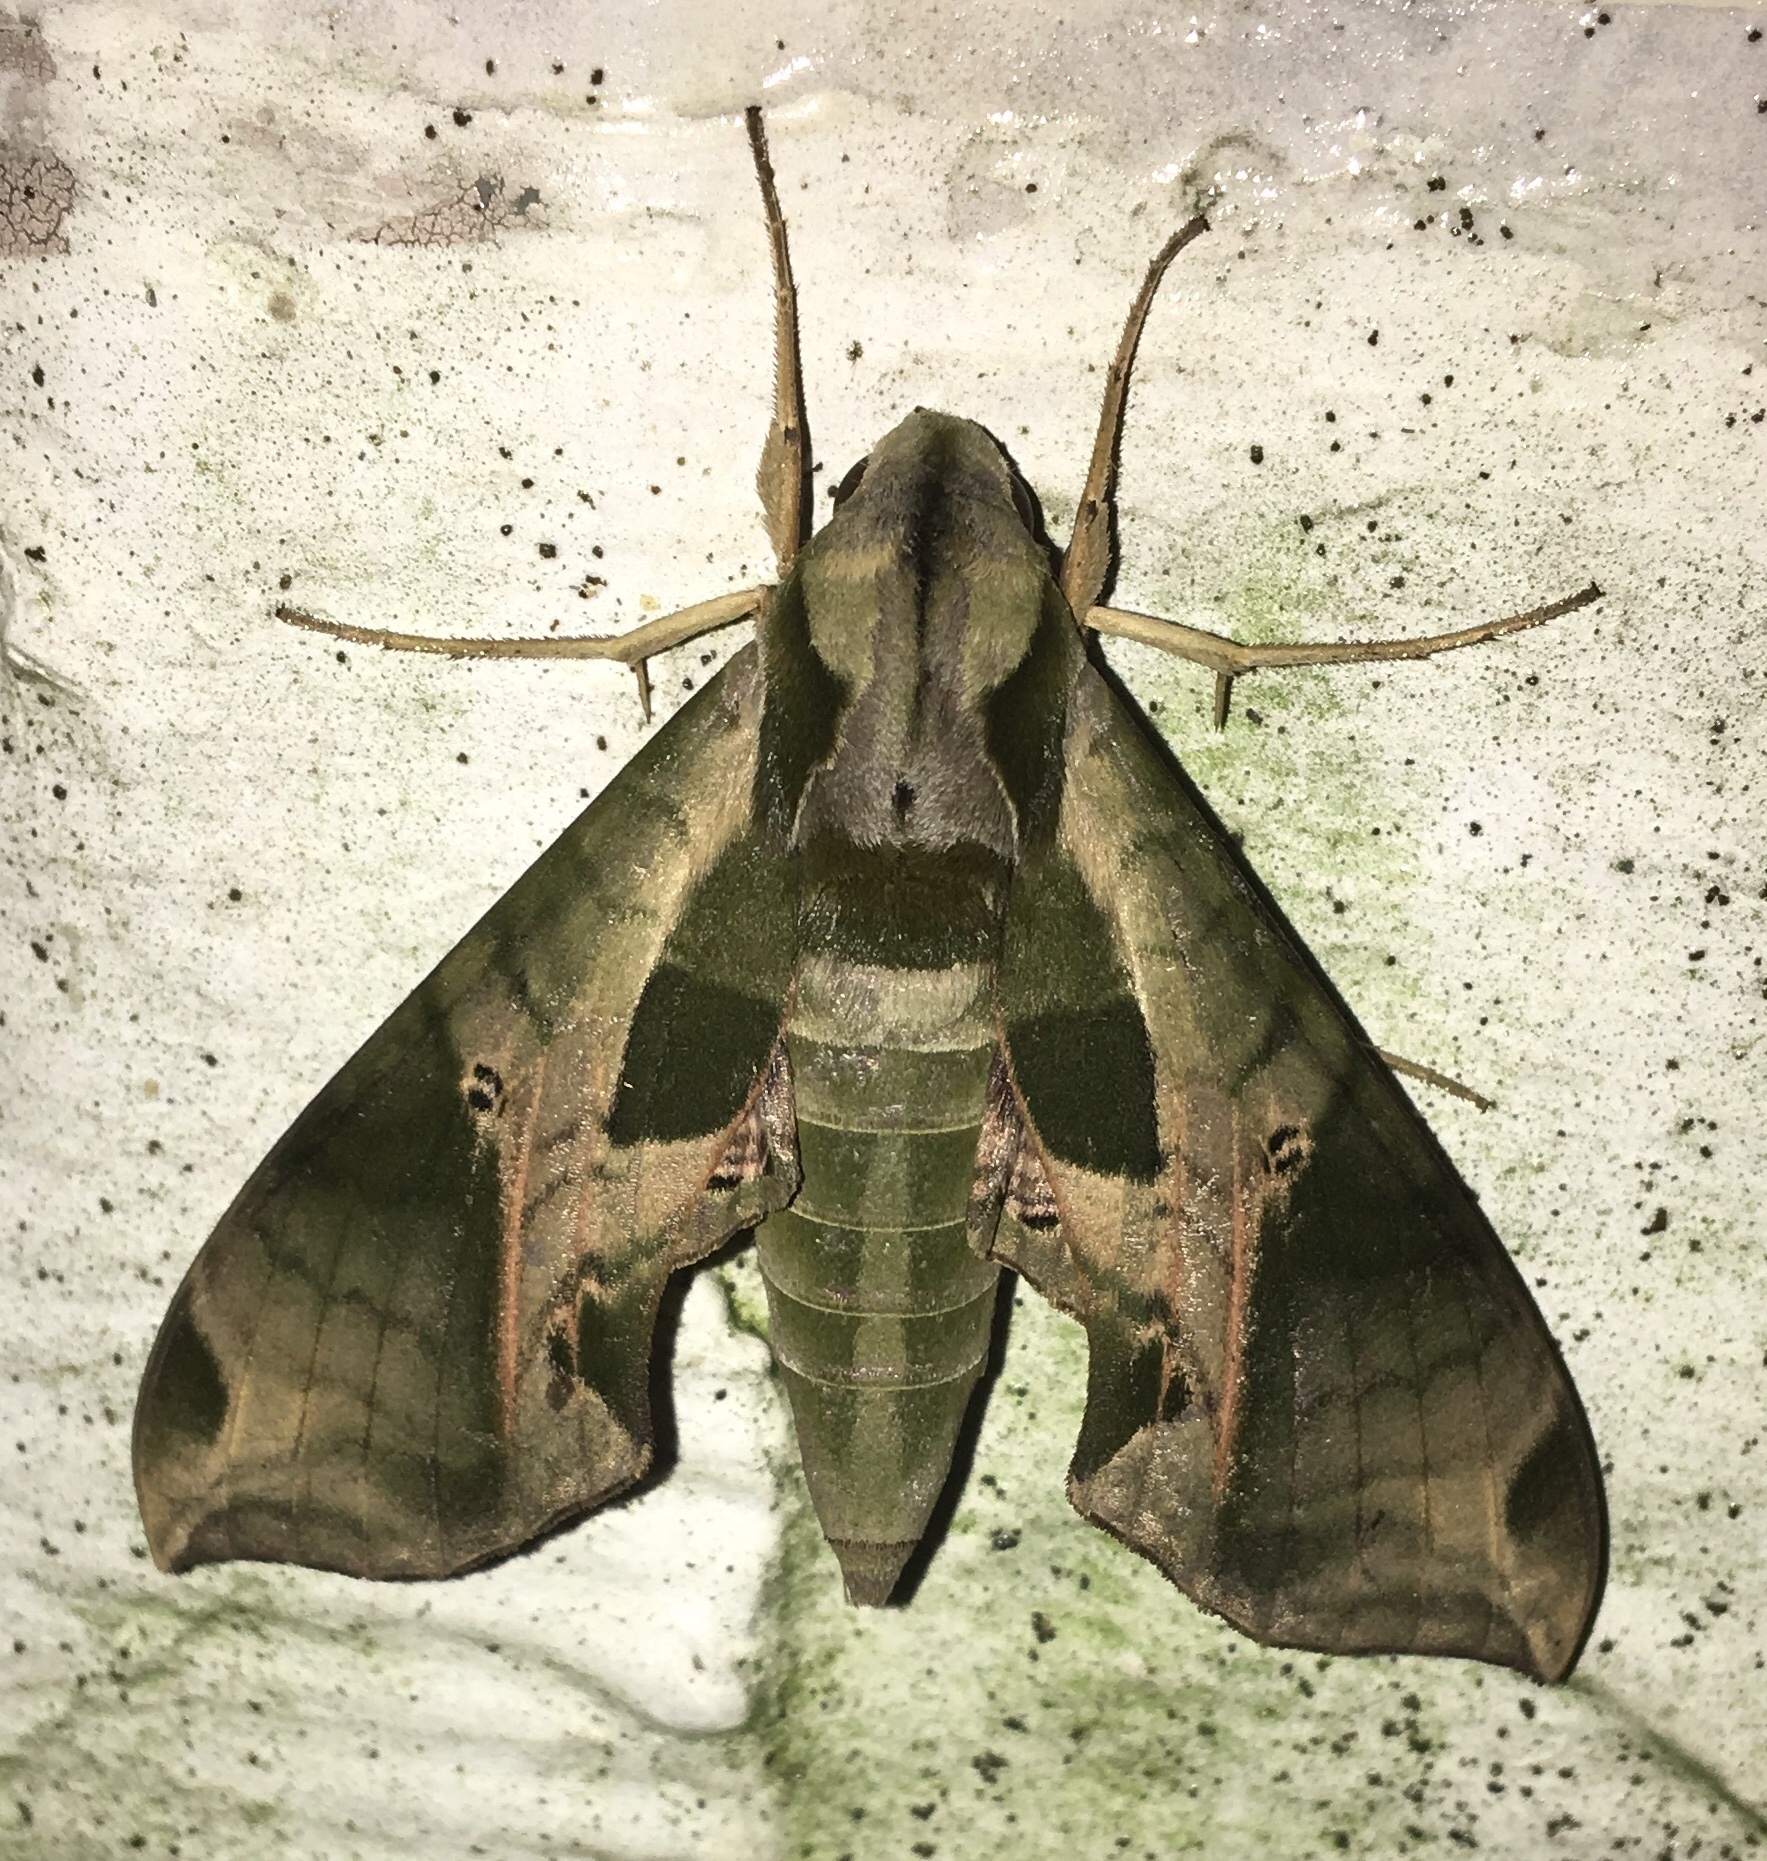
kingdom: Animalia
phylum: Arthropoda
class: Insecta
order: Lepidoptera
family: Sphingidae
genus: Eumorpha
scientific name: Eumorpha pandorus
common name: Pandora sphinx
